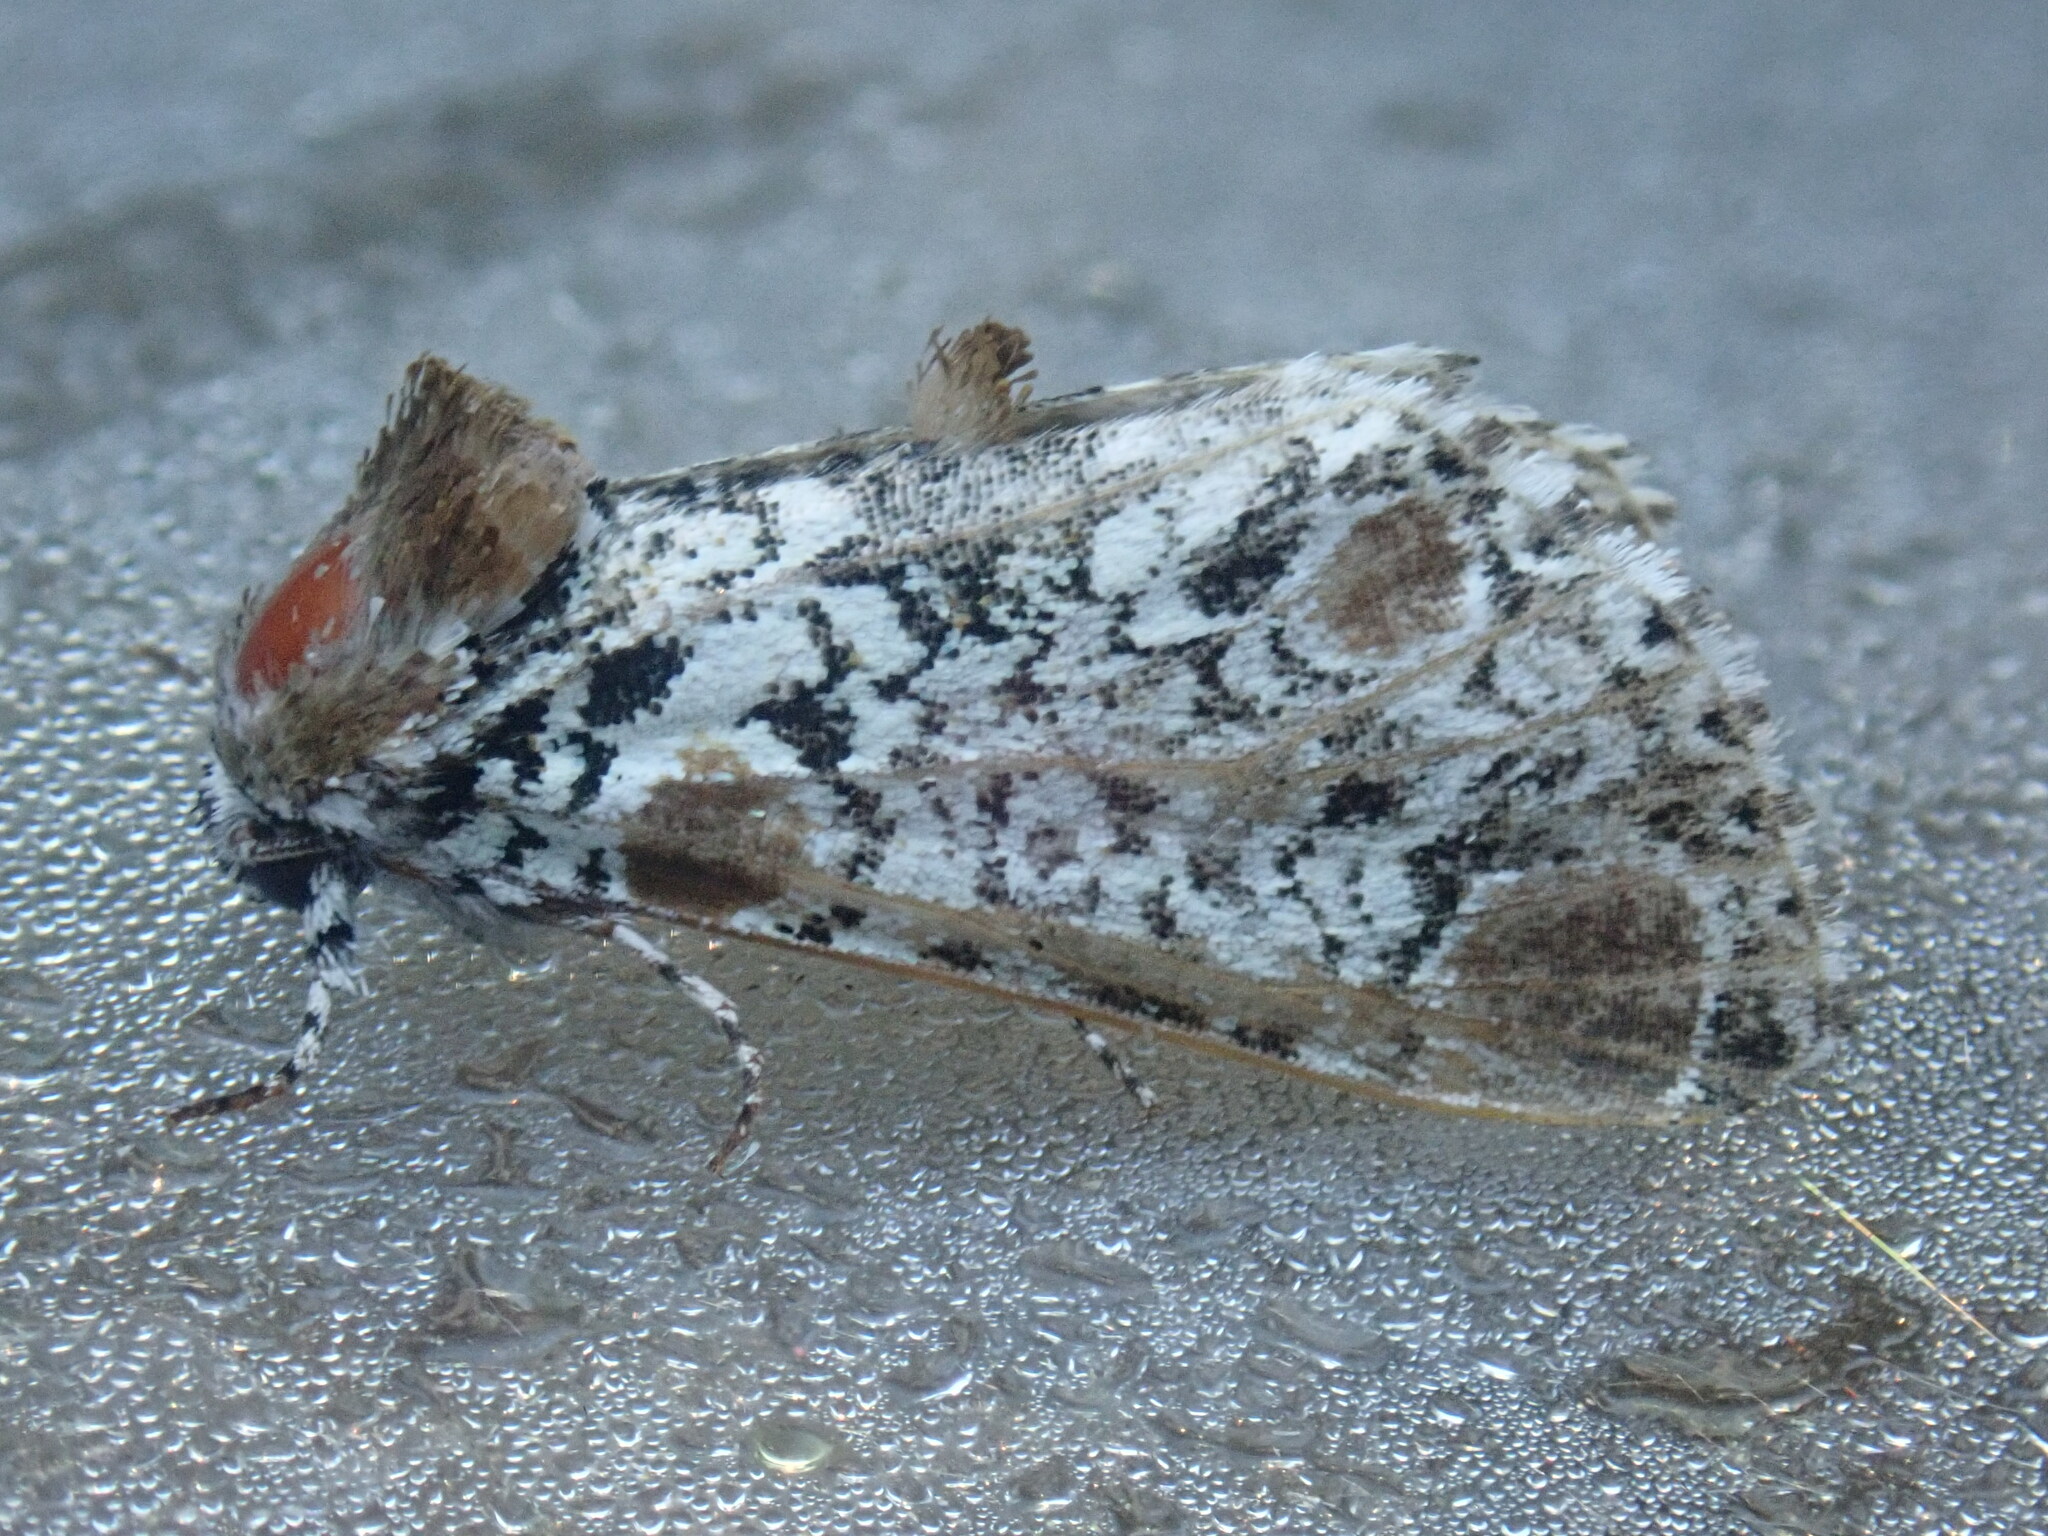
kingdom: Animalia
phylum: Arthropoda
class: Insecta
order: Lepidoptera
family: Noctuidae
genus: Harrisimemna
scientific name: Harrisimemna trisignata
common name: Harris threespot
